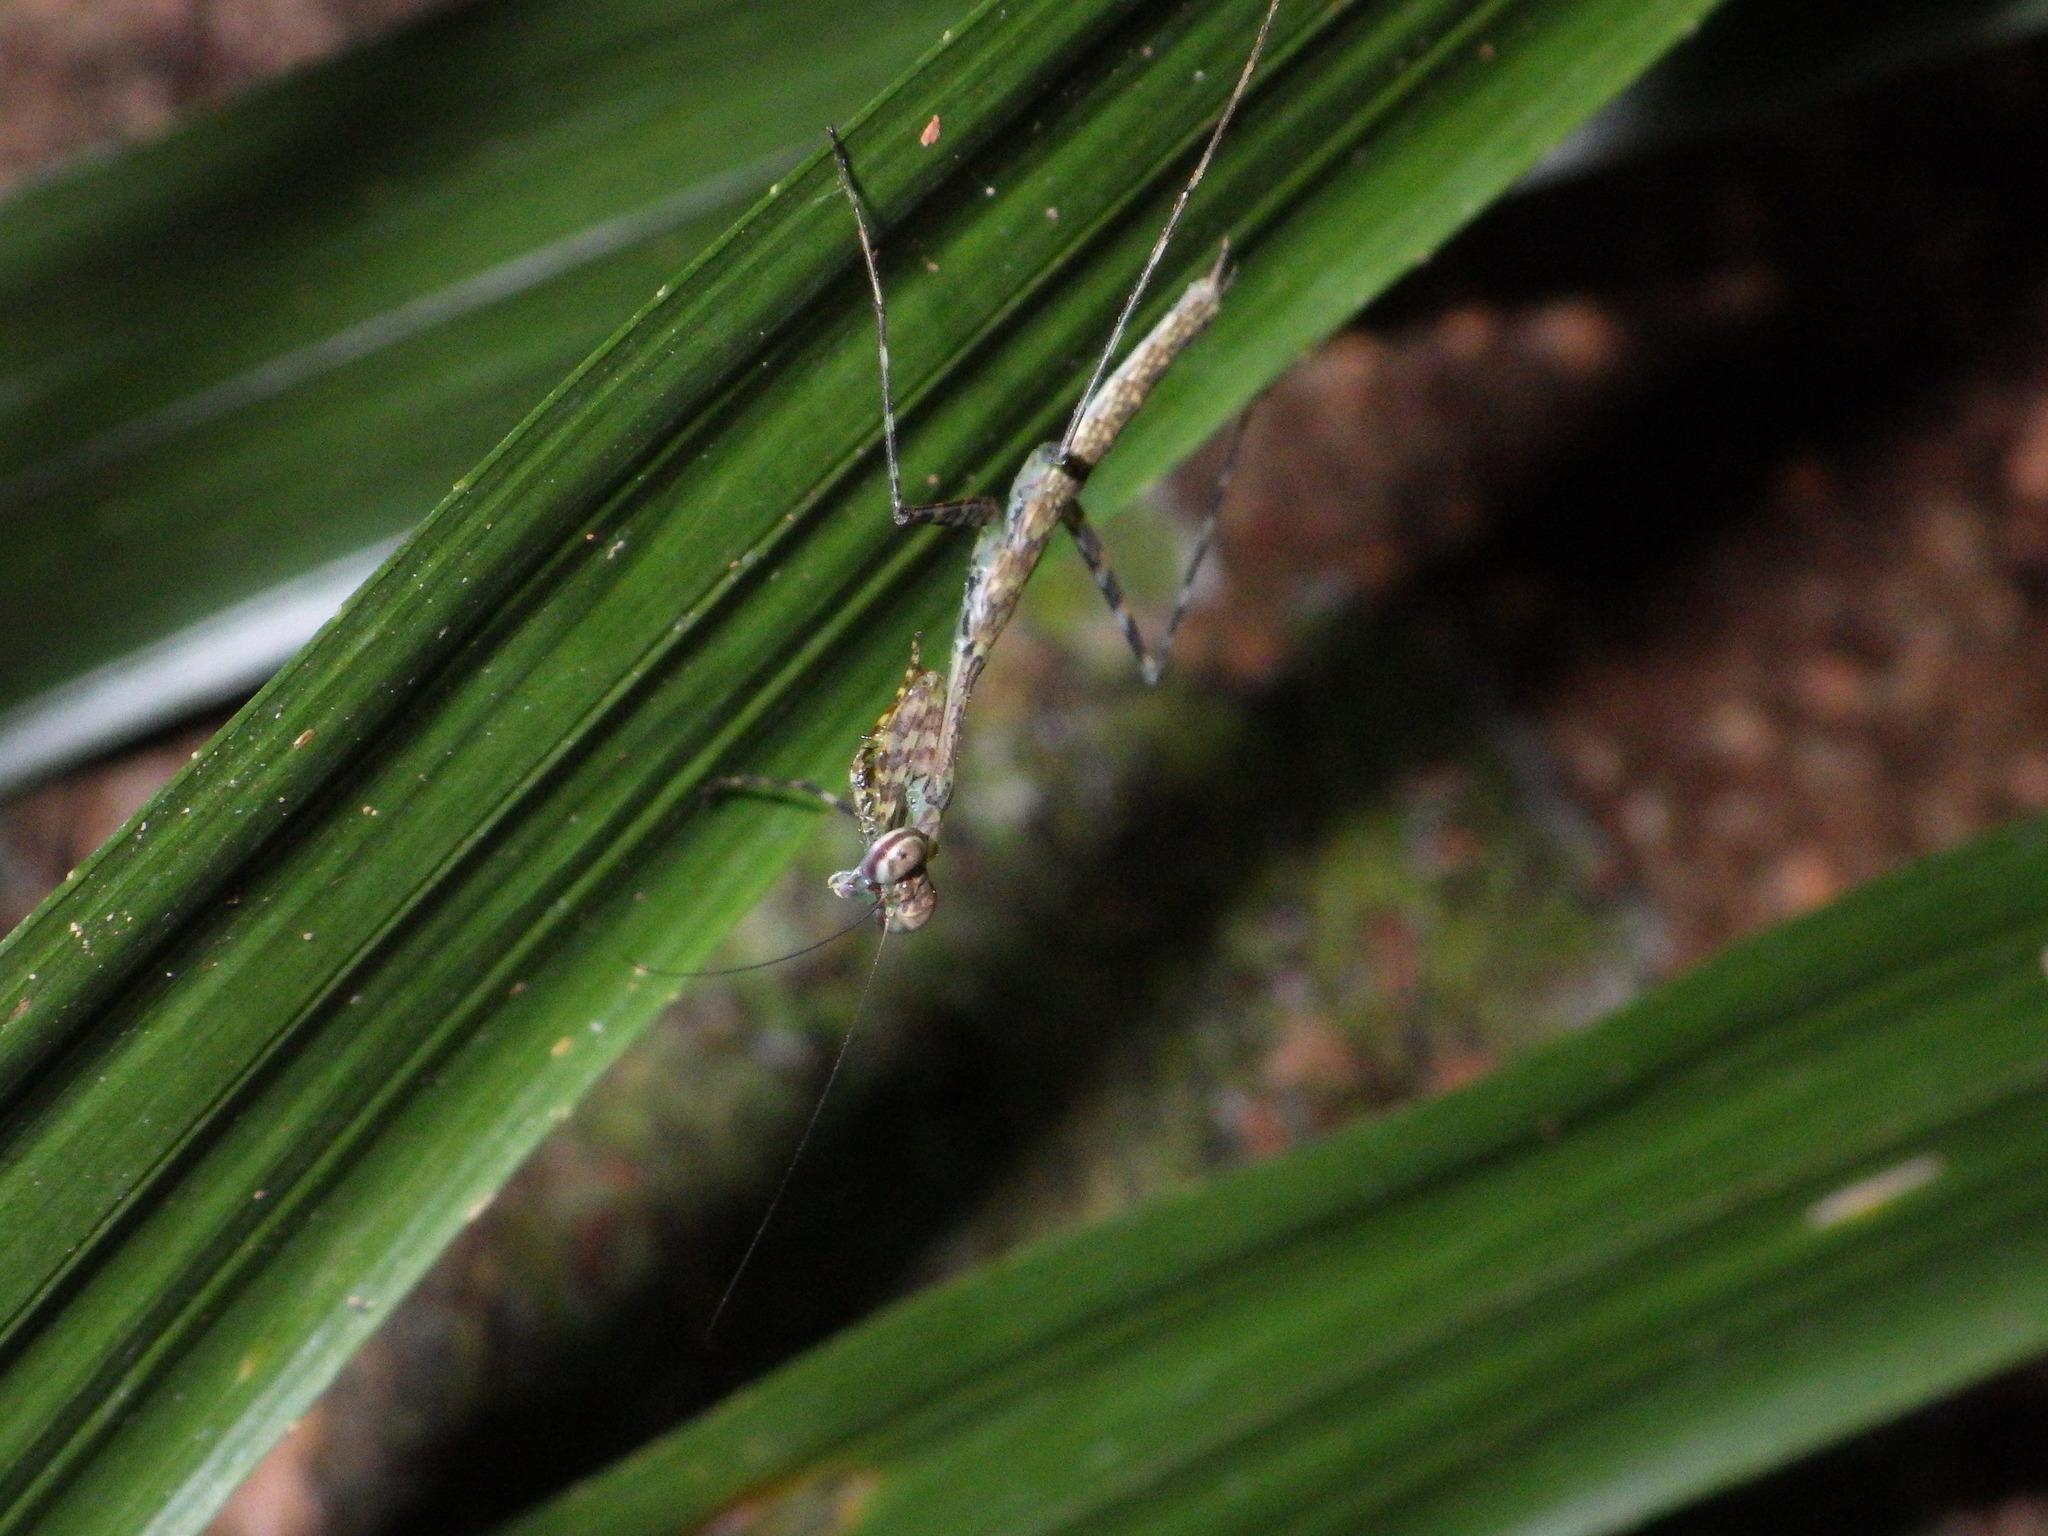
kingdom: Animalia
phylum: Arthropoda
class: Insecta
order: Mantodea
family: Nanomantidae
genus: Ciulfina
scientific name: Ciulfina rentzi
